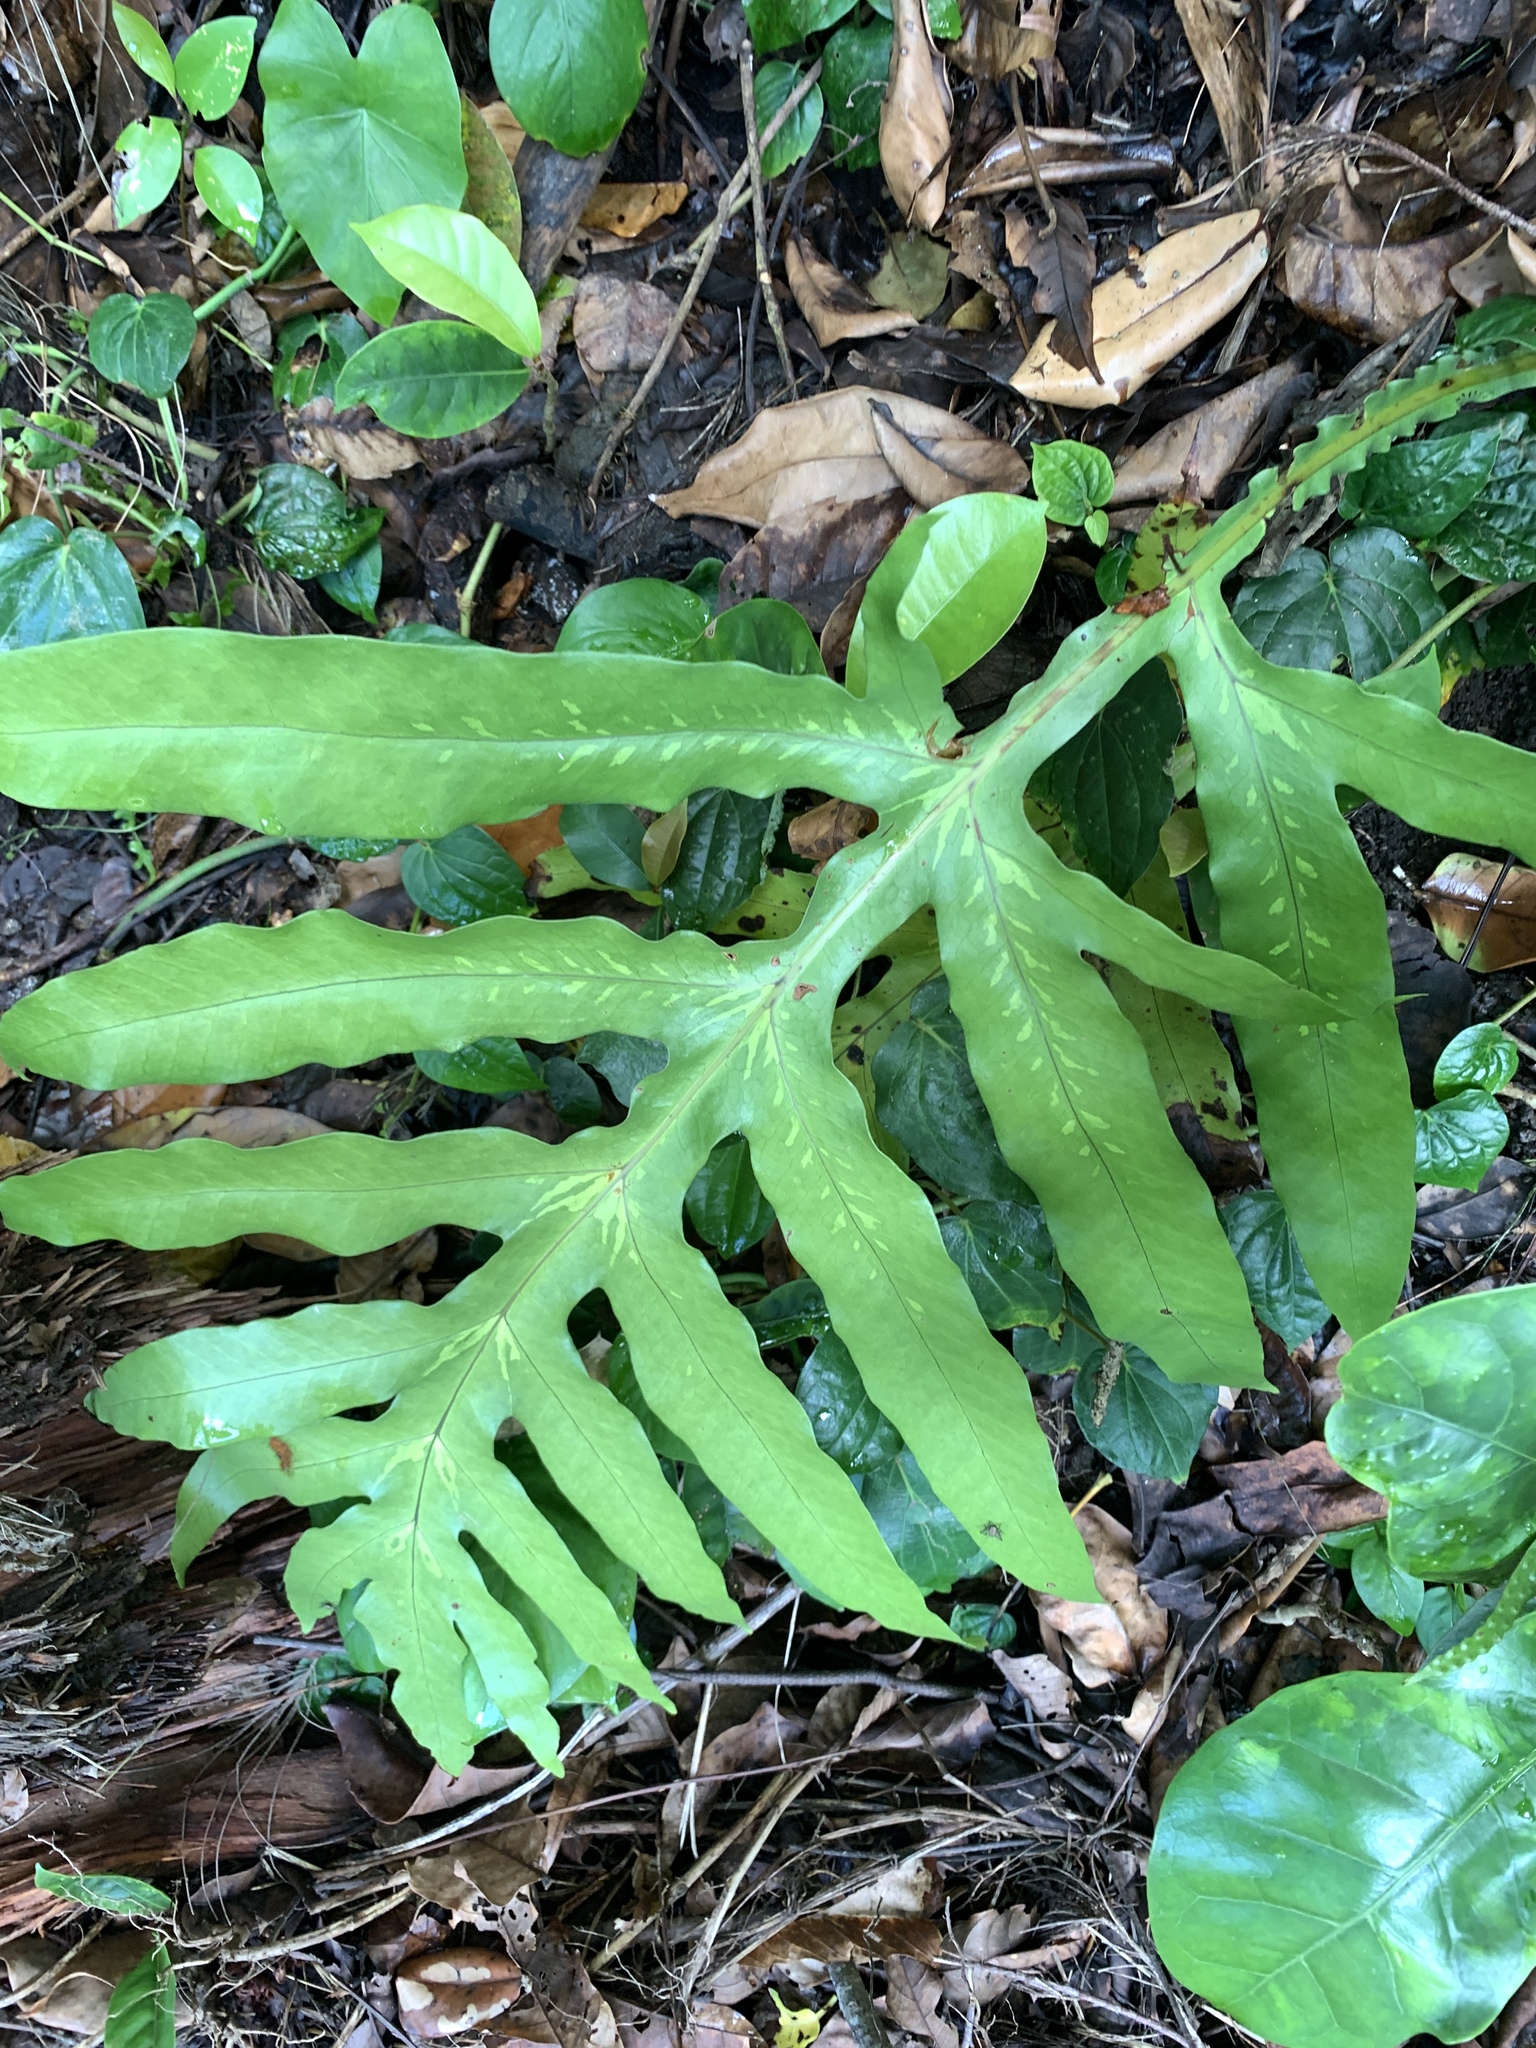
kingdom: Plantae
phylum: Tracheophyta
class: Polypodiopsida
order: Polypodiales
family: Tectariaceae
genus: Tectaria
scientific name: Tectaria decurrens
